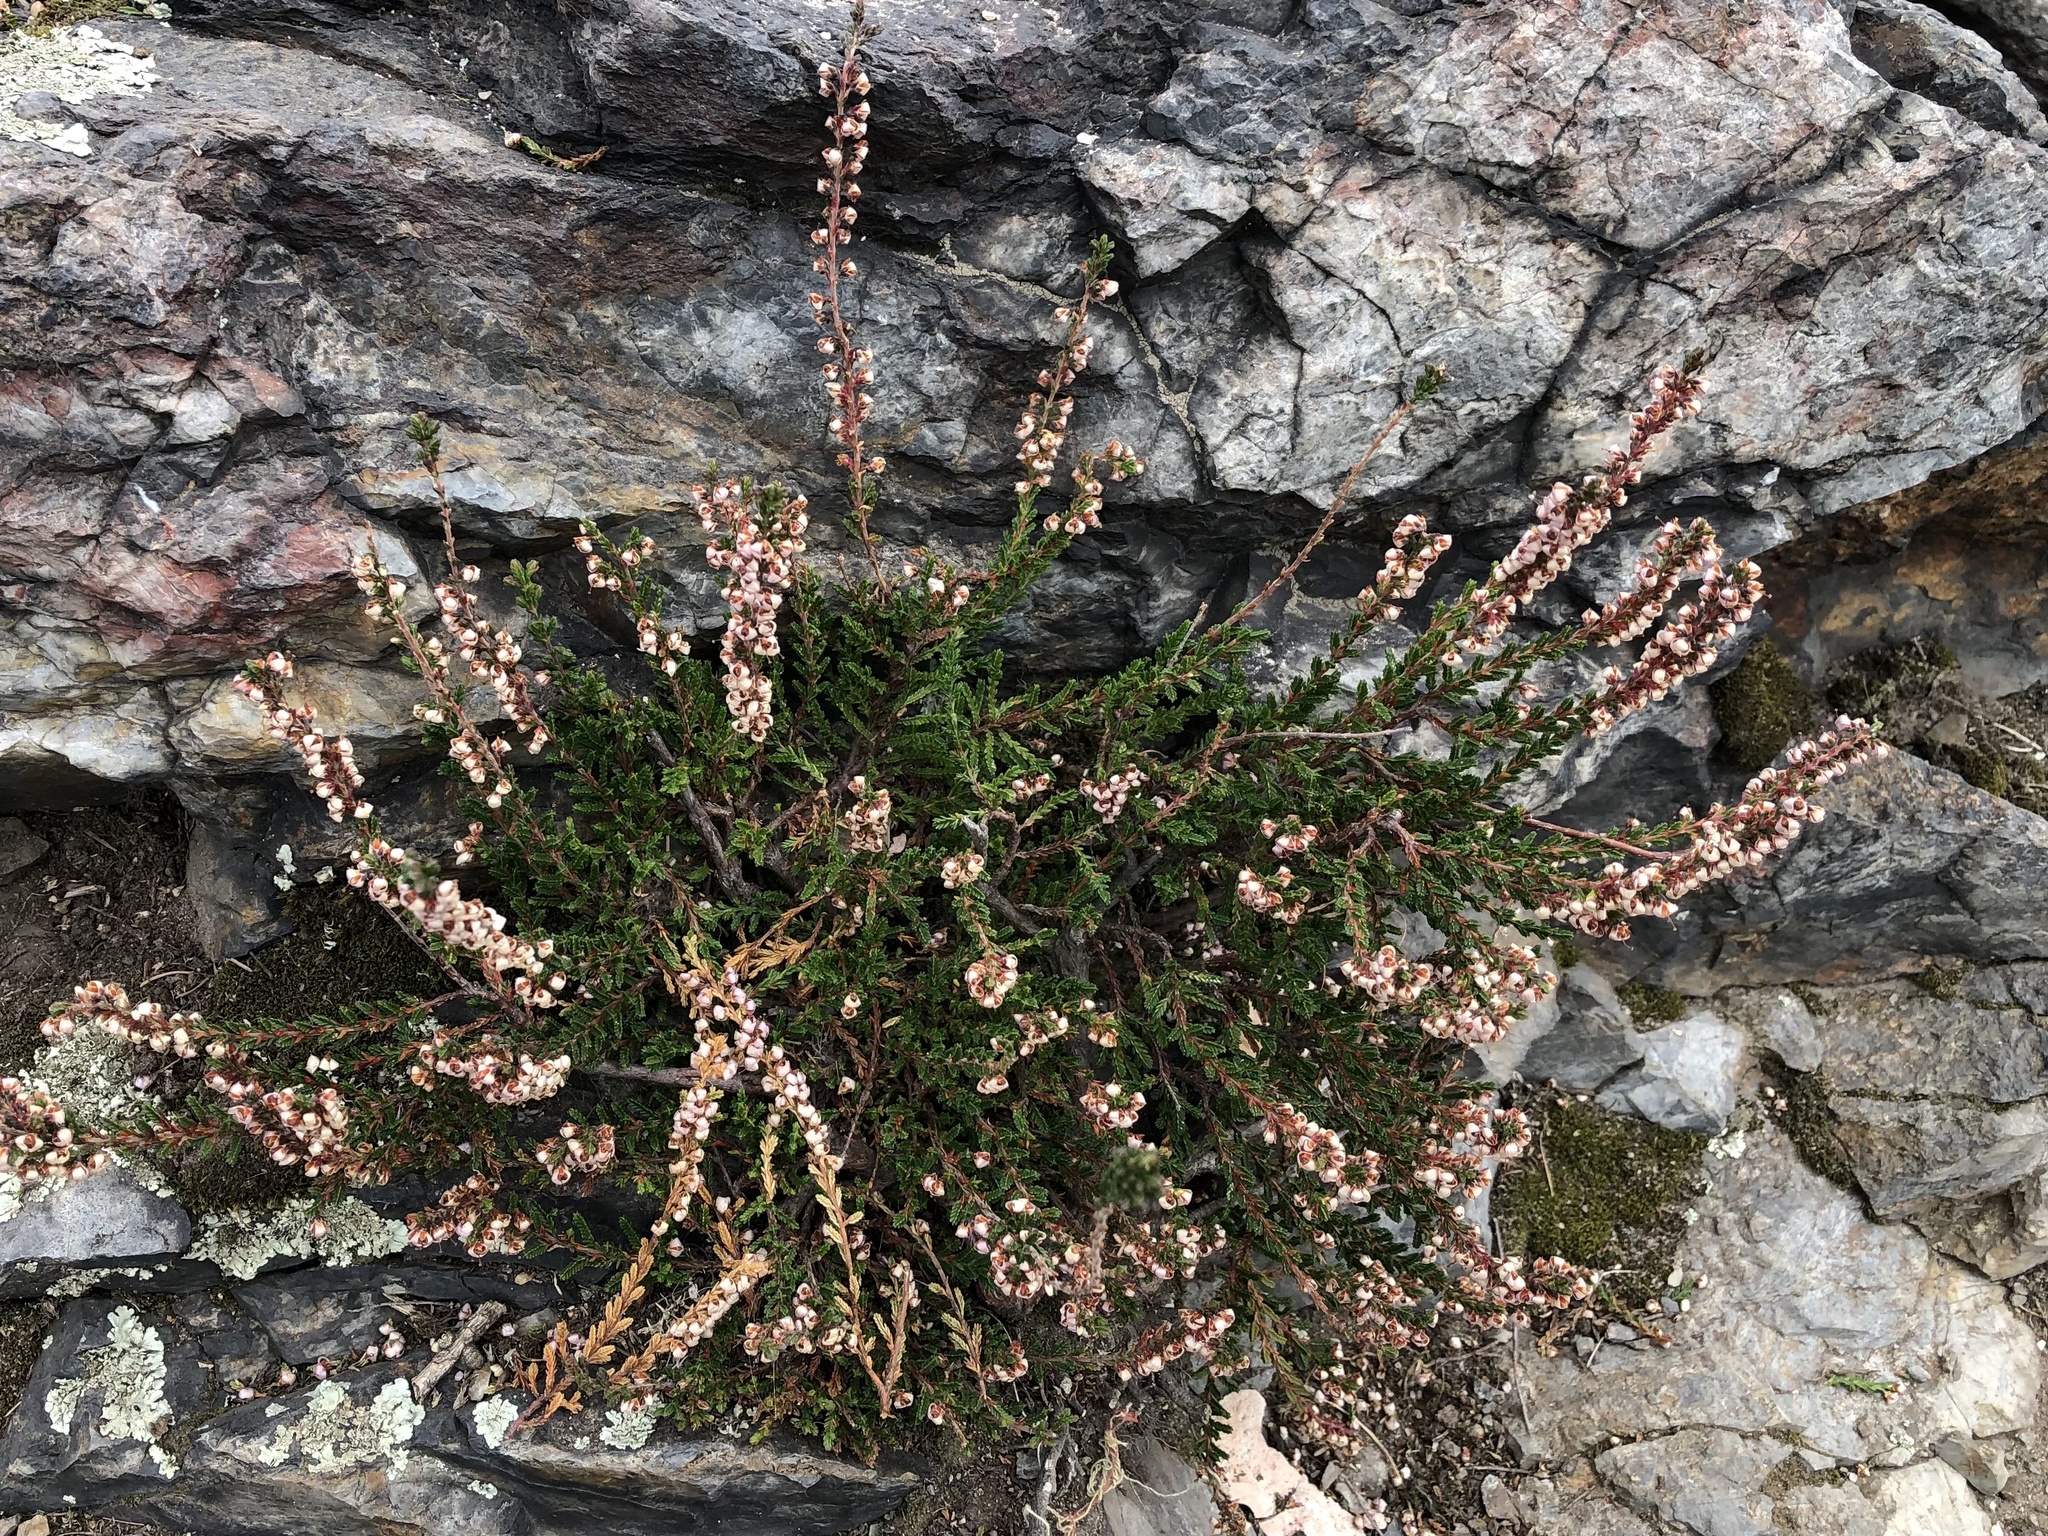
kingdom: Plantae
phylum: Tracheophyta
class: Magnoliopsida
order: Ericales
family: Ericaceae
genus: Calluna
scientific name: Calluna vulgaris
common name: Heather
